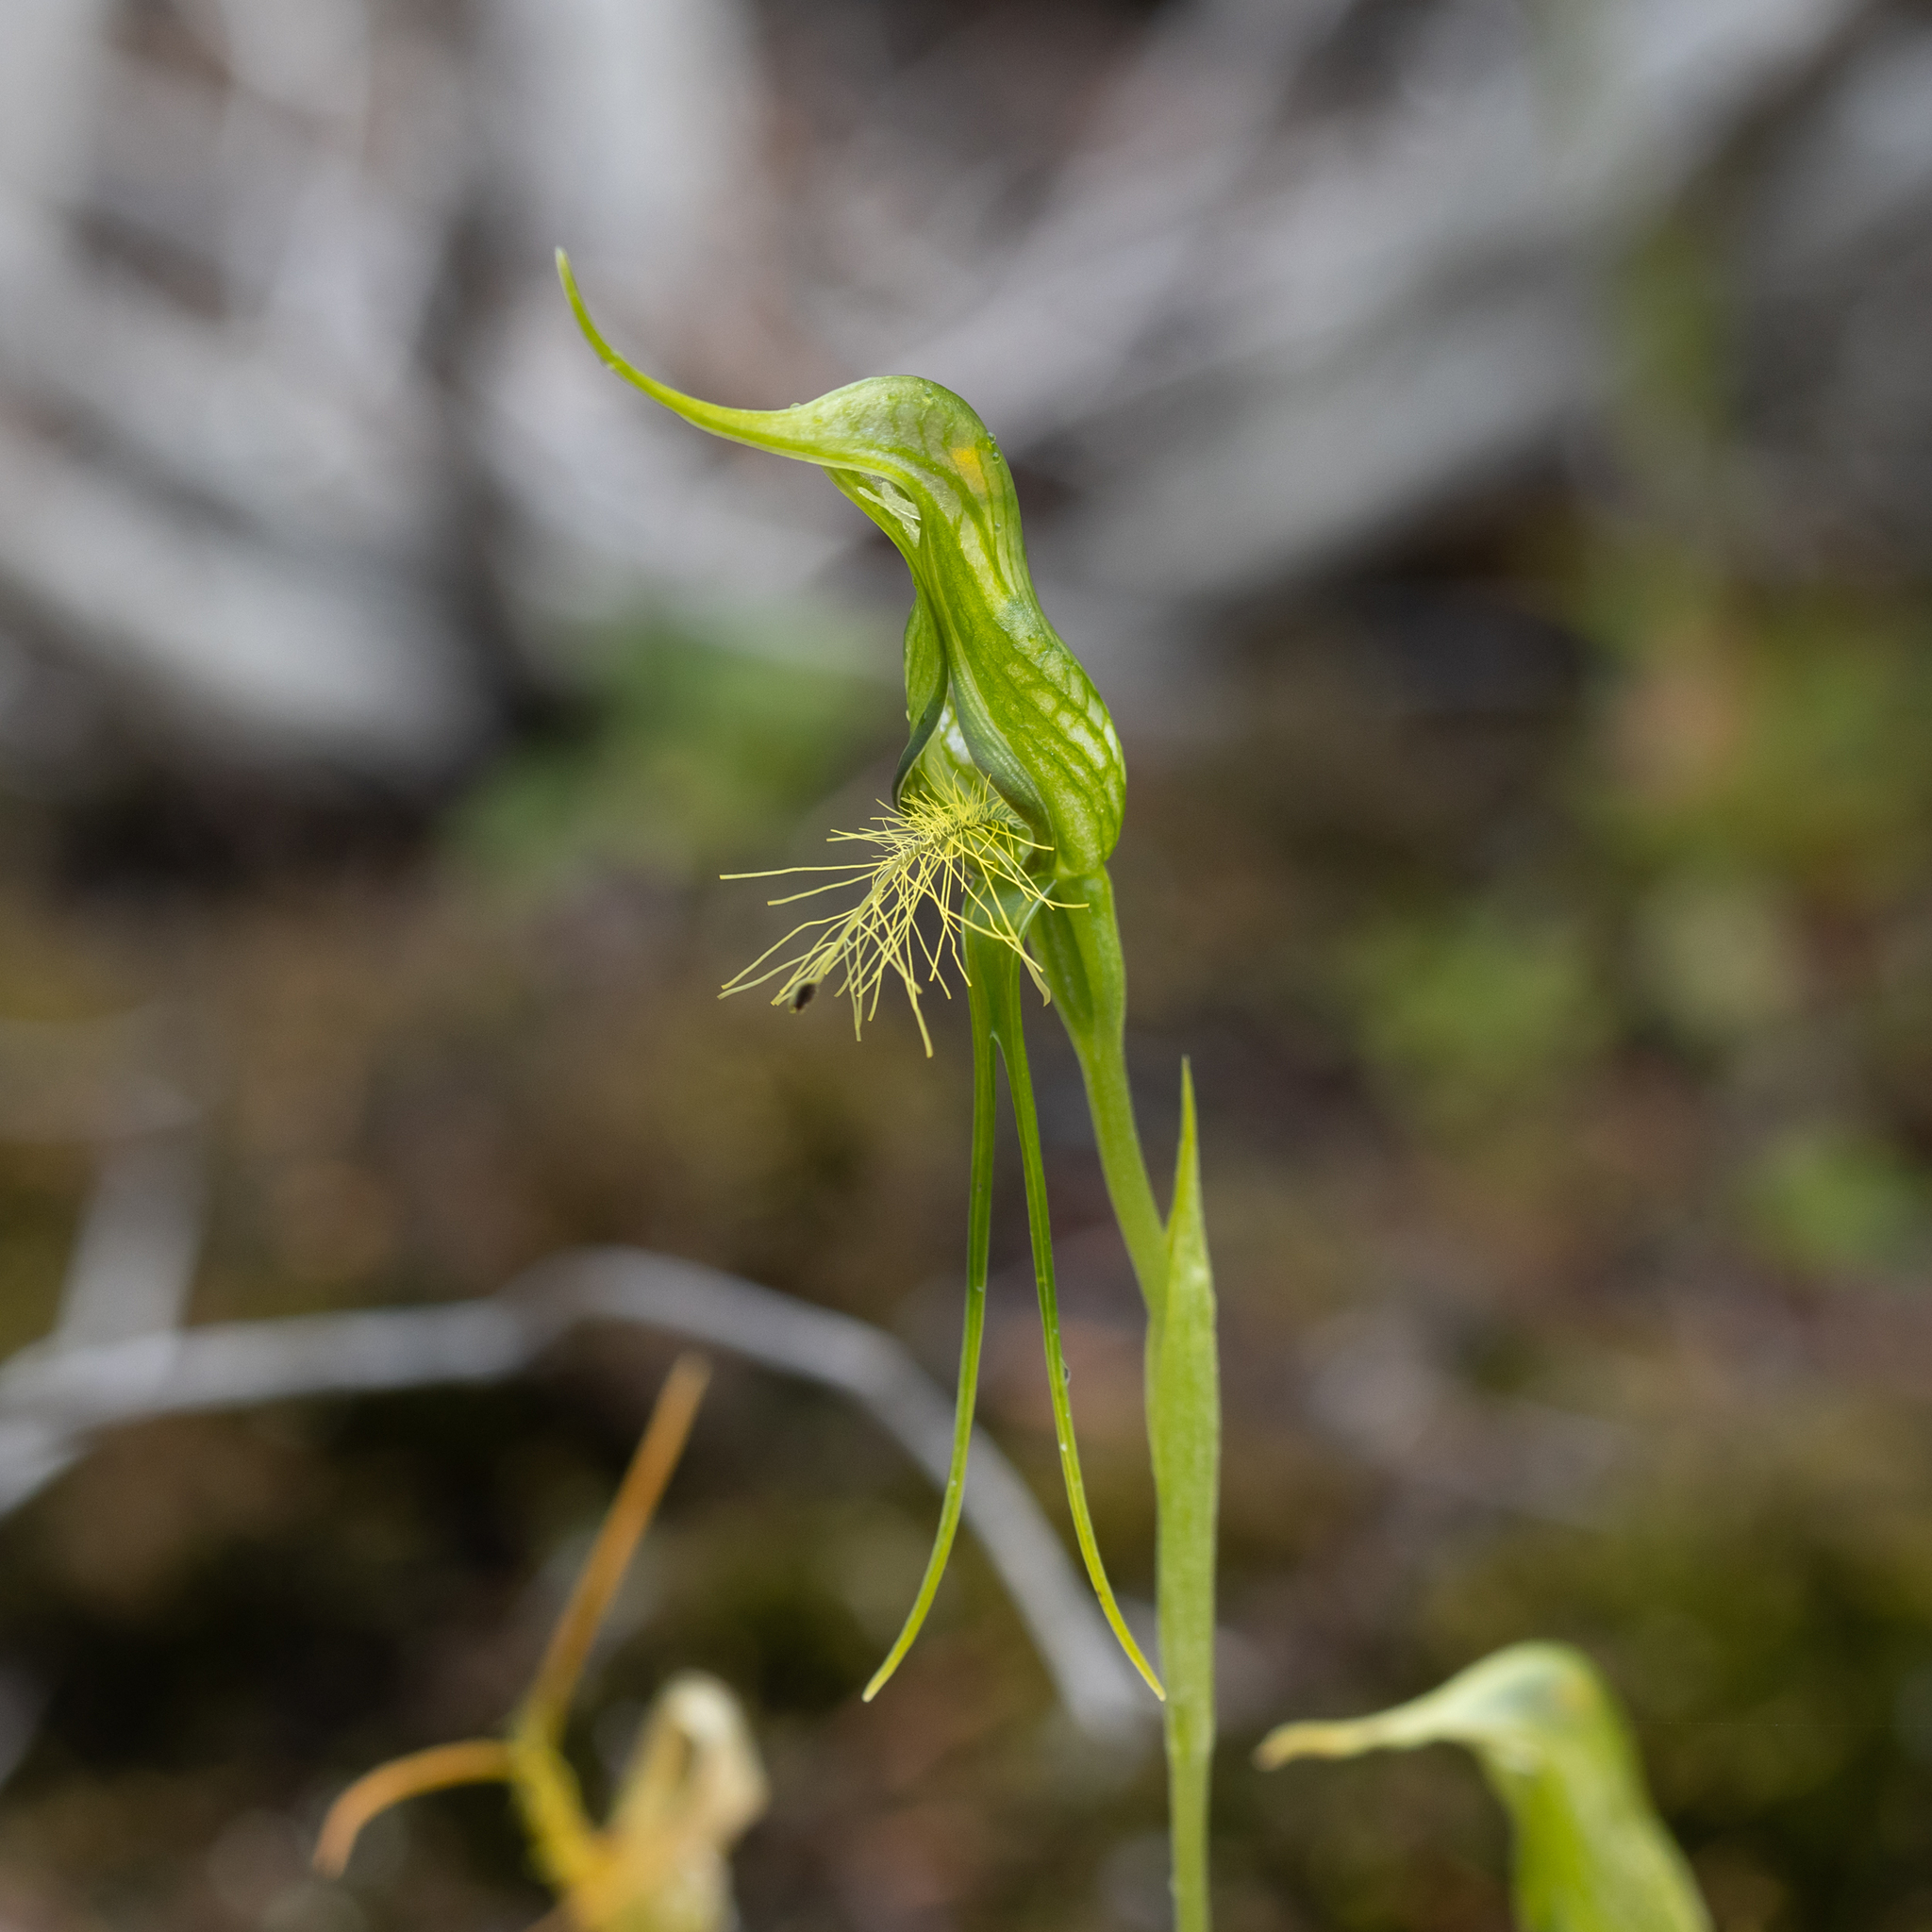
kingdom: Plantae
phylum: Tracheophyta
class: Liliopsida
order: Asparagales
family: Orchidaceae
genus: Pterostylis
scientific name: Pterostylis turfosa
